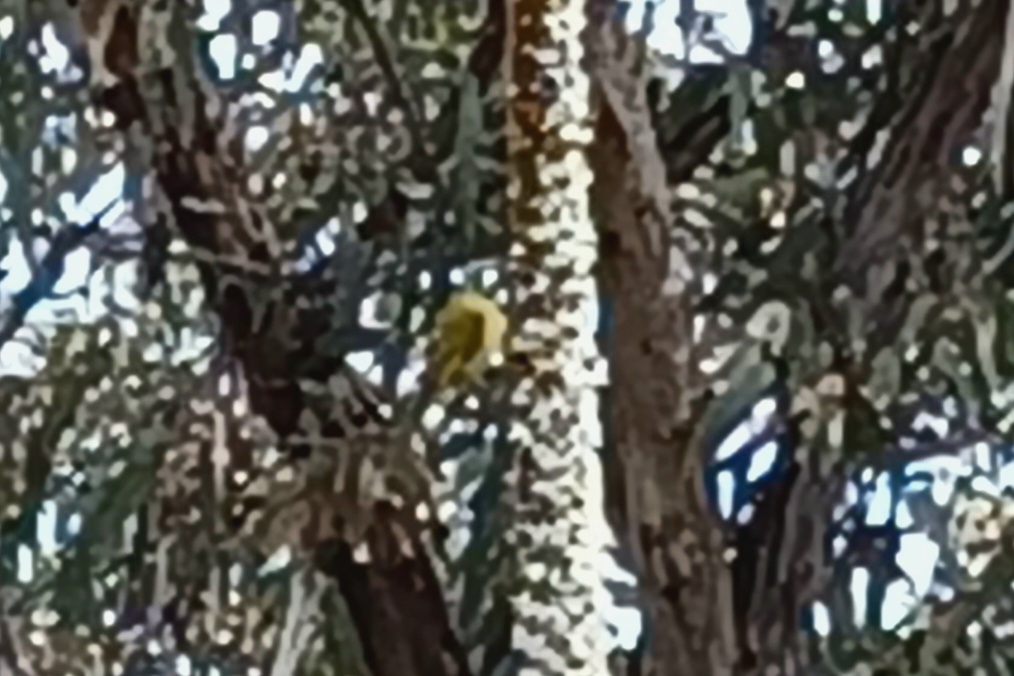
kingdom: Animalia
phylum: Chordata
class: Aves
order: Passeriformes
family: Meliphagidae
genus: Nesoptilotis
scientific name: Nesoptilotis leucotis
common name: White-eared honeyeater
